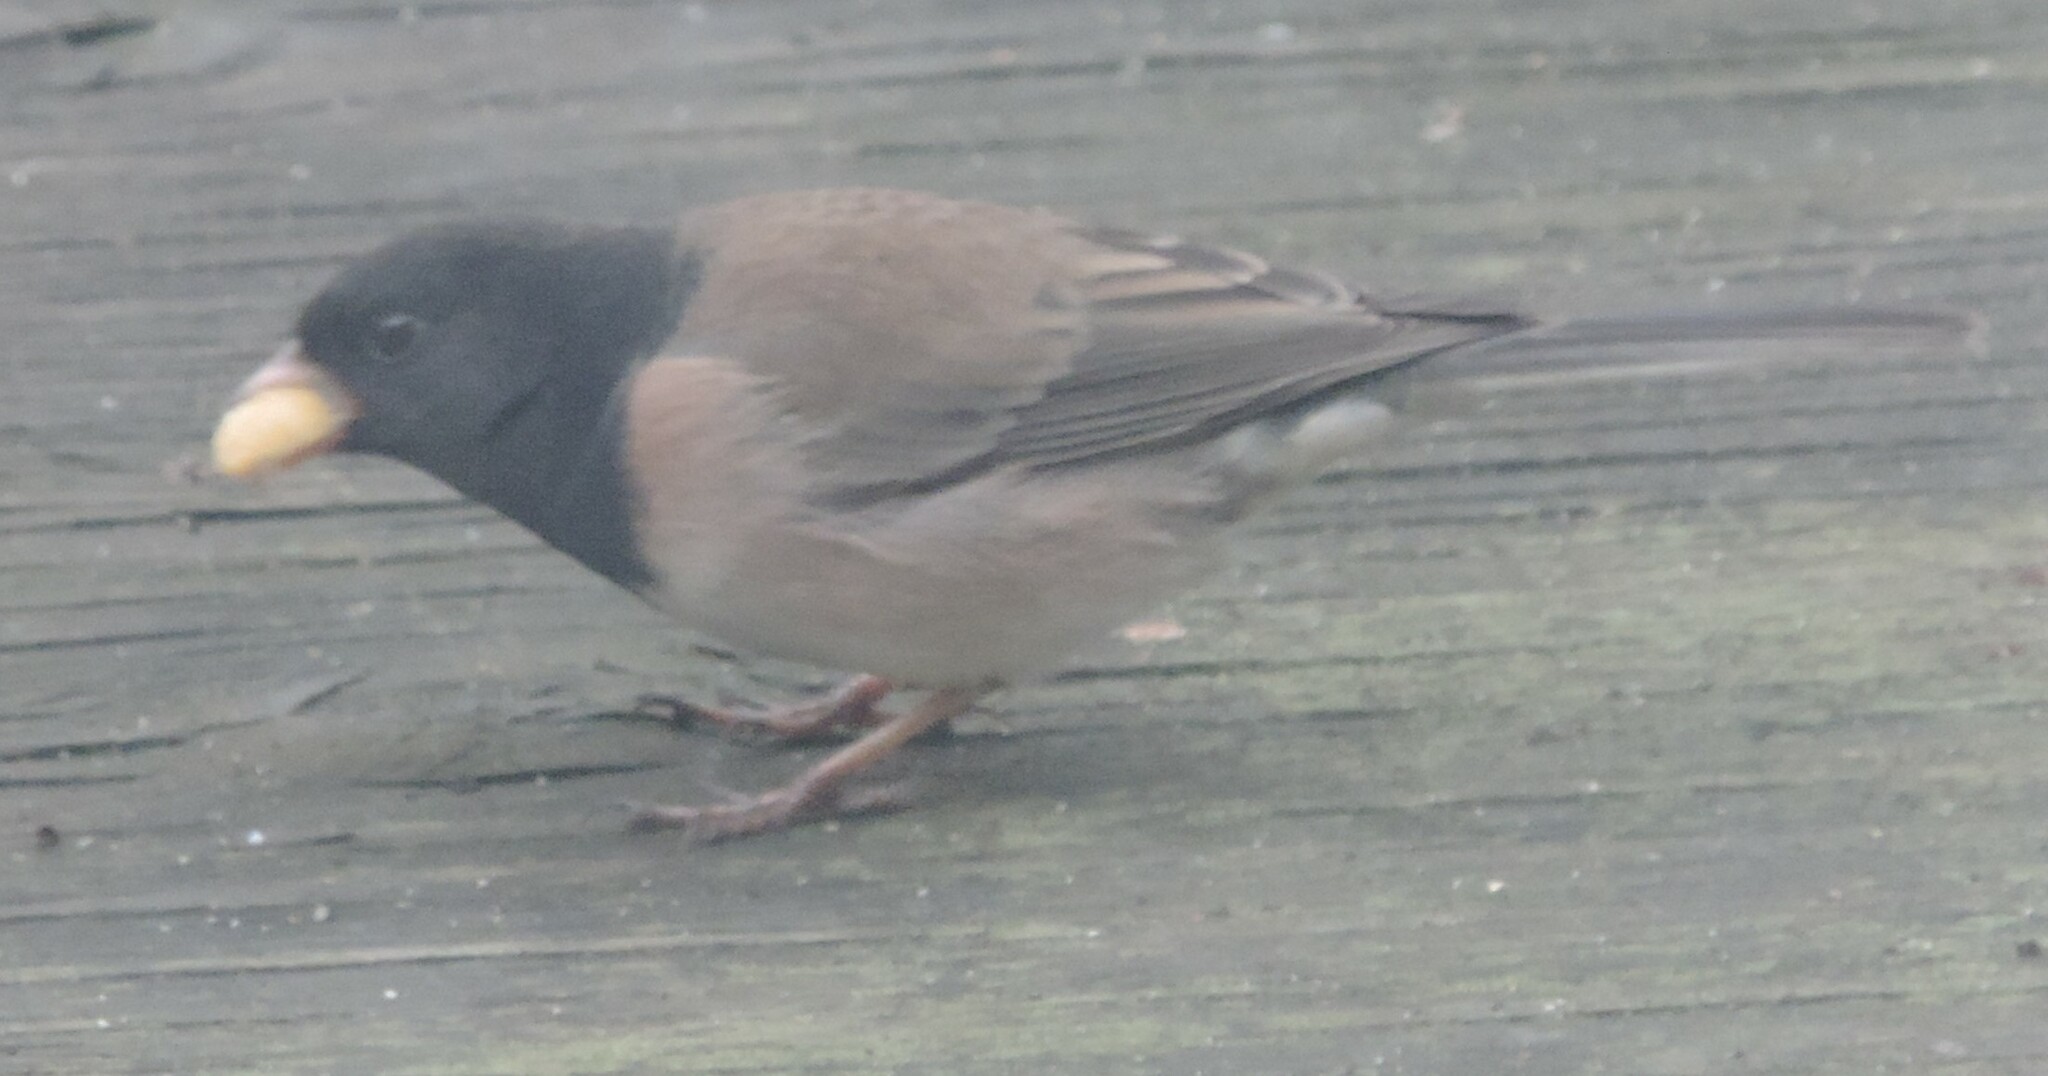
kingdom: Animalia
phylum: Chordata
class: Aves
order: Passeriformes
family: Passerellidae
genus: Junco
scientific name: Junco hyemalis
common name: Dark-eyed junco
